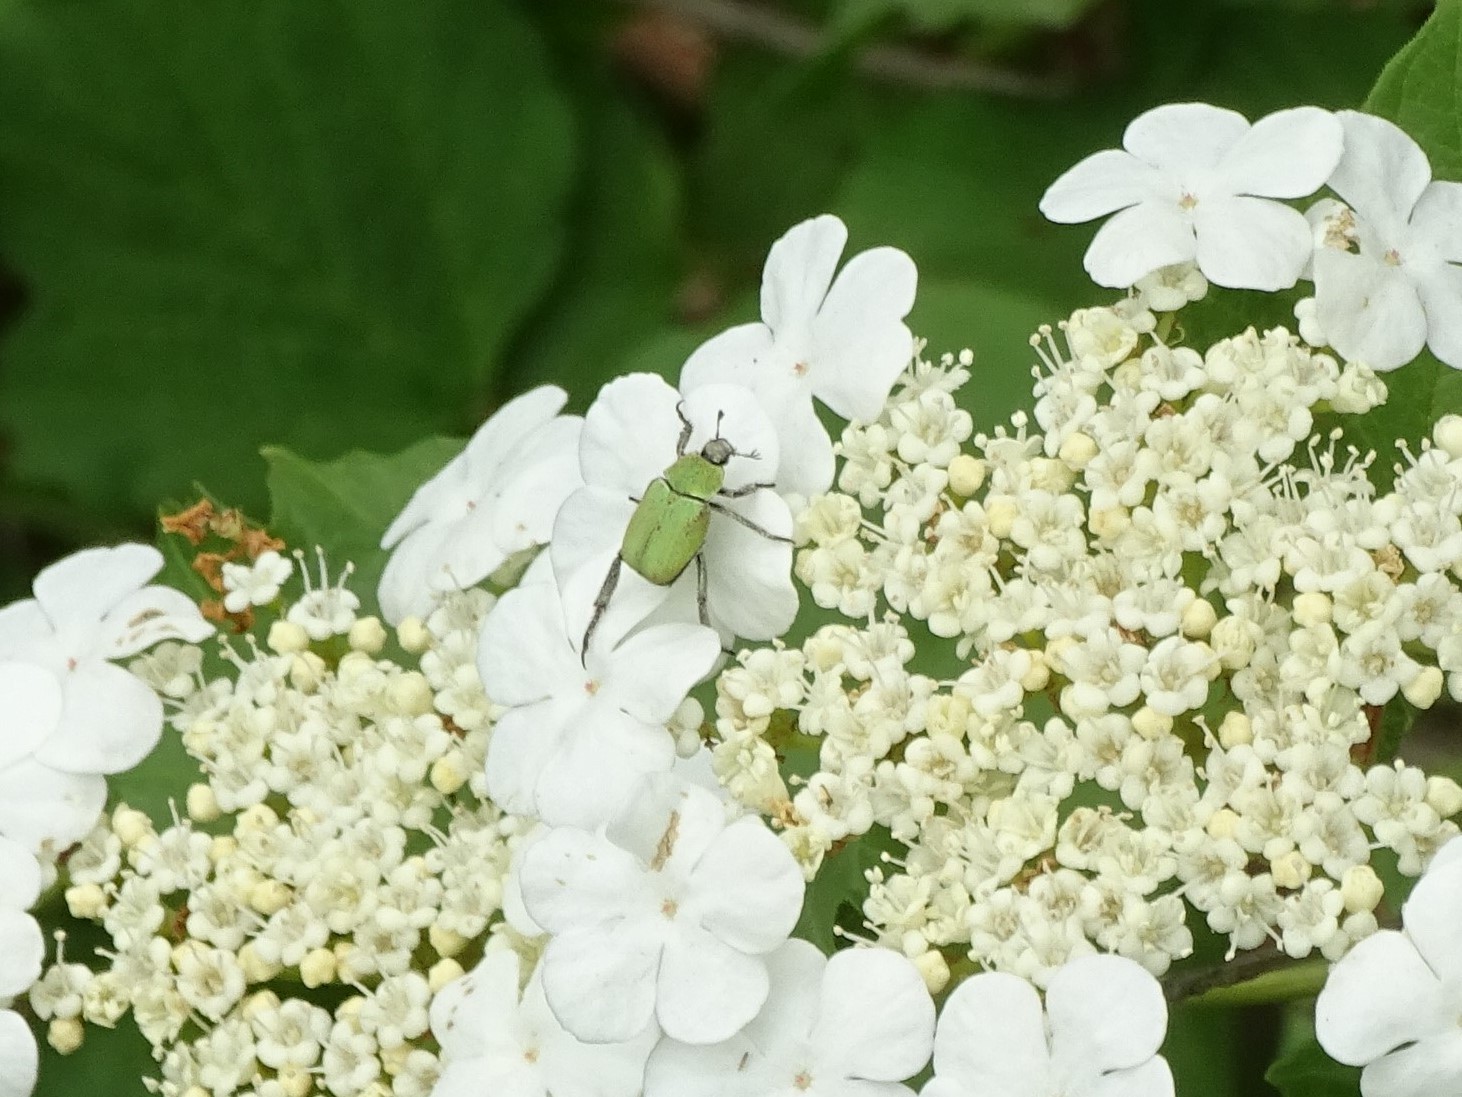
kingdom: Animalia
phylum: Arthropoda
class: Insecta
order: Coleoptera
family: Scarabaeidae
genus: Hoplia
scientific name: Hoplia argentea
